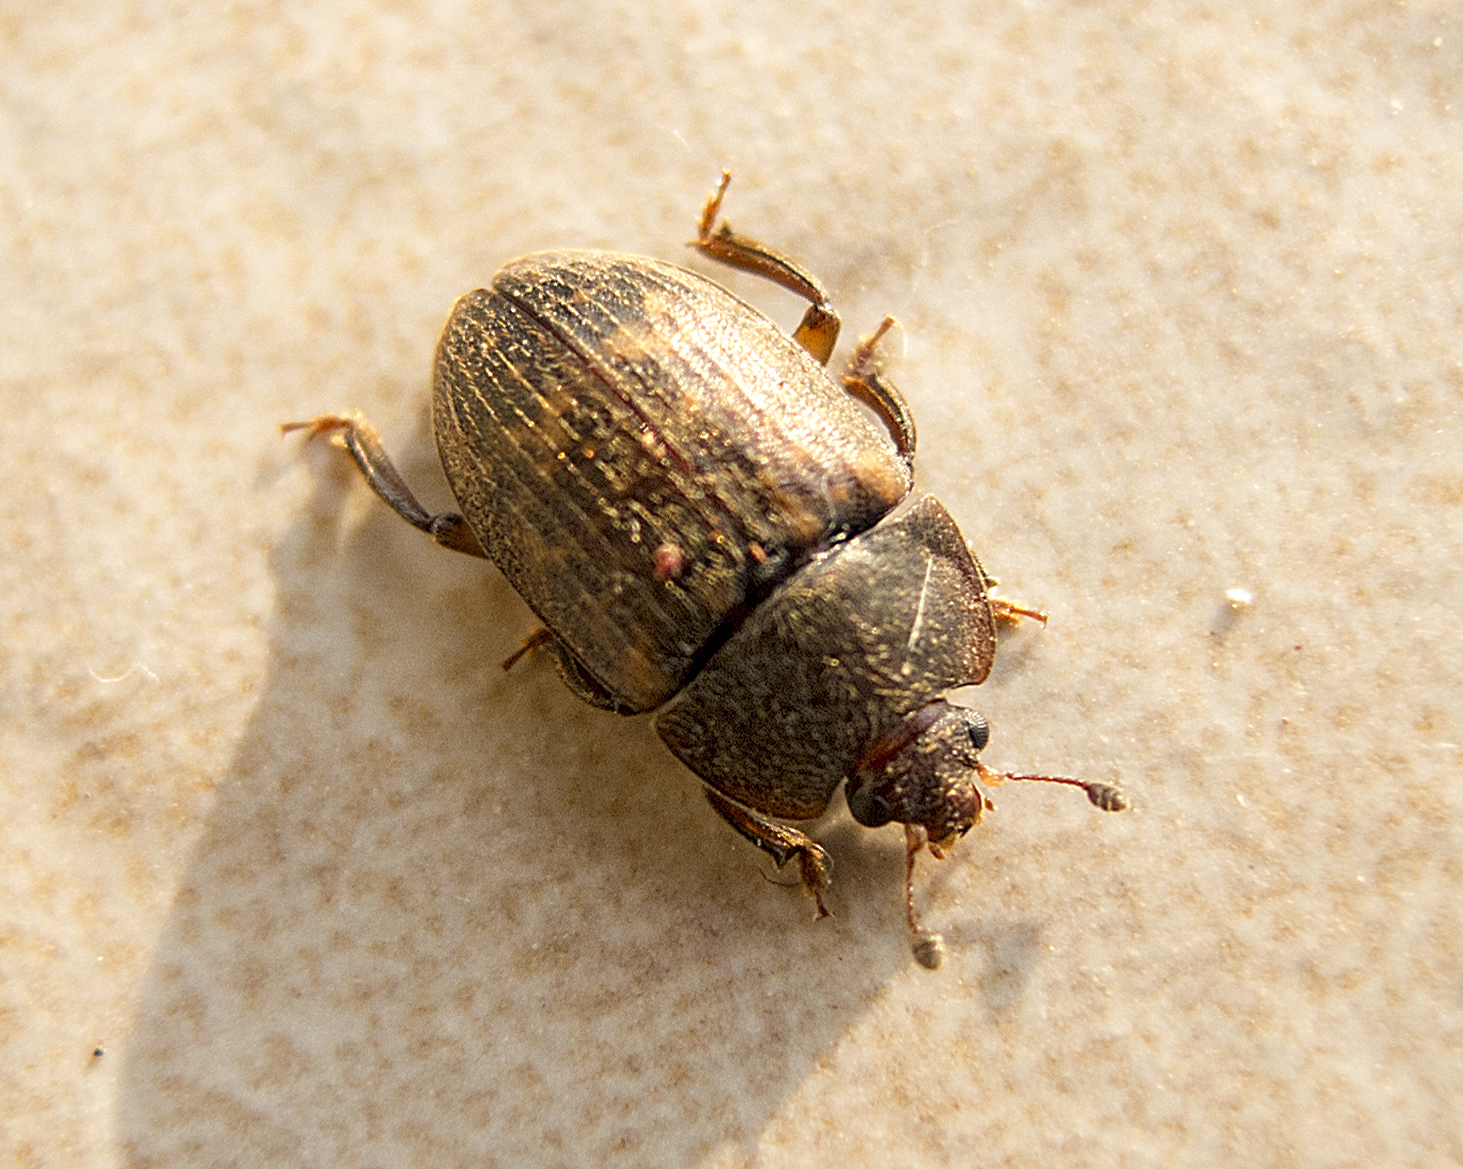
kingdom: Animalia
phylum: Arthropoda
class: Insecta
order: Coleoptera
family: Nitidulidae
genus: Phenolia
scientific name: Phenolia picta
